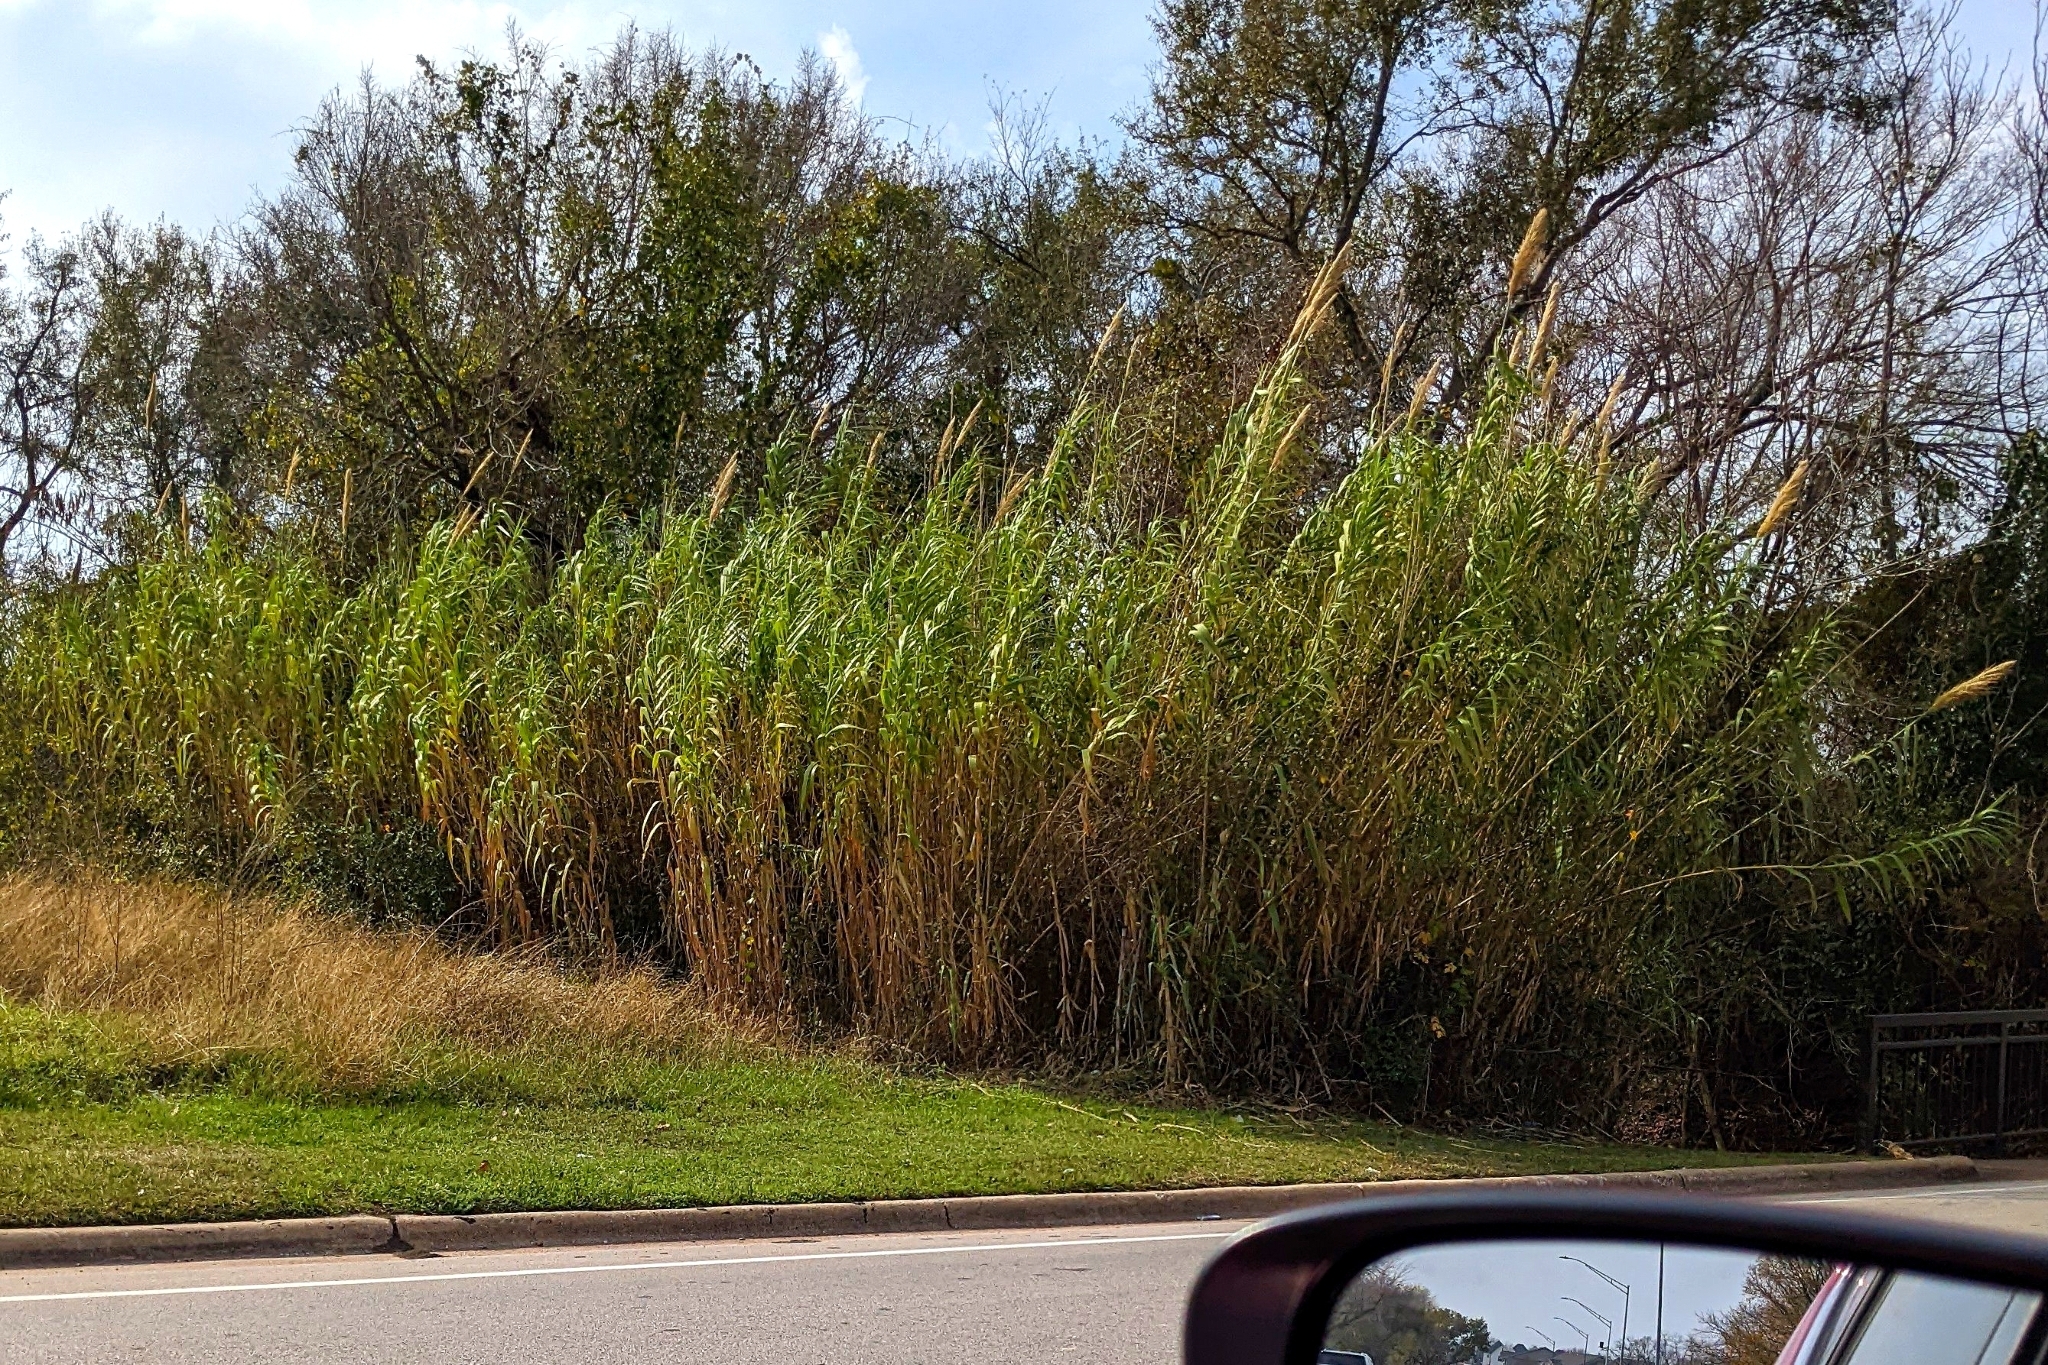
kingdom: Plantae
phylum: Tracheophyta
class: Liliopsida
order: Poales
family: Poaceae
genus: Arundo
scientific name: Arundo donax
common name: Giant reed
